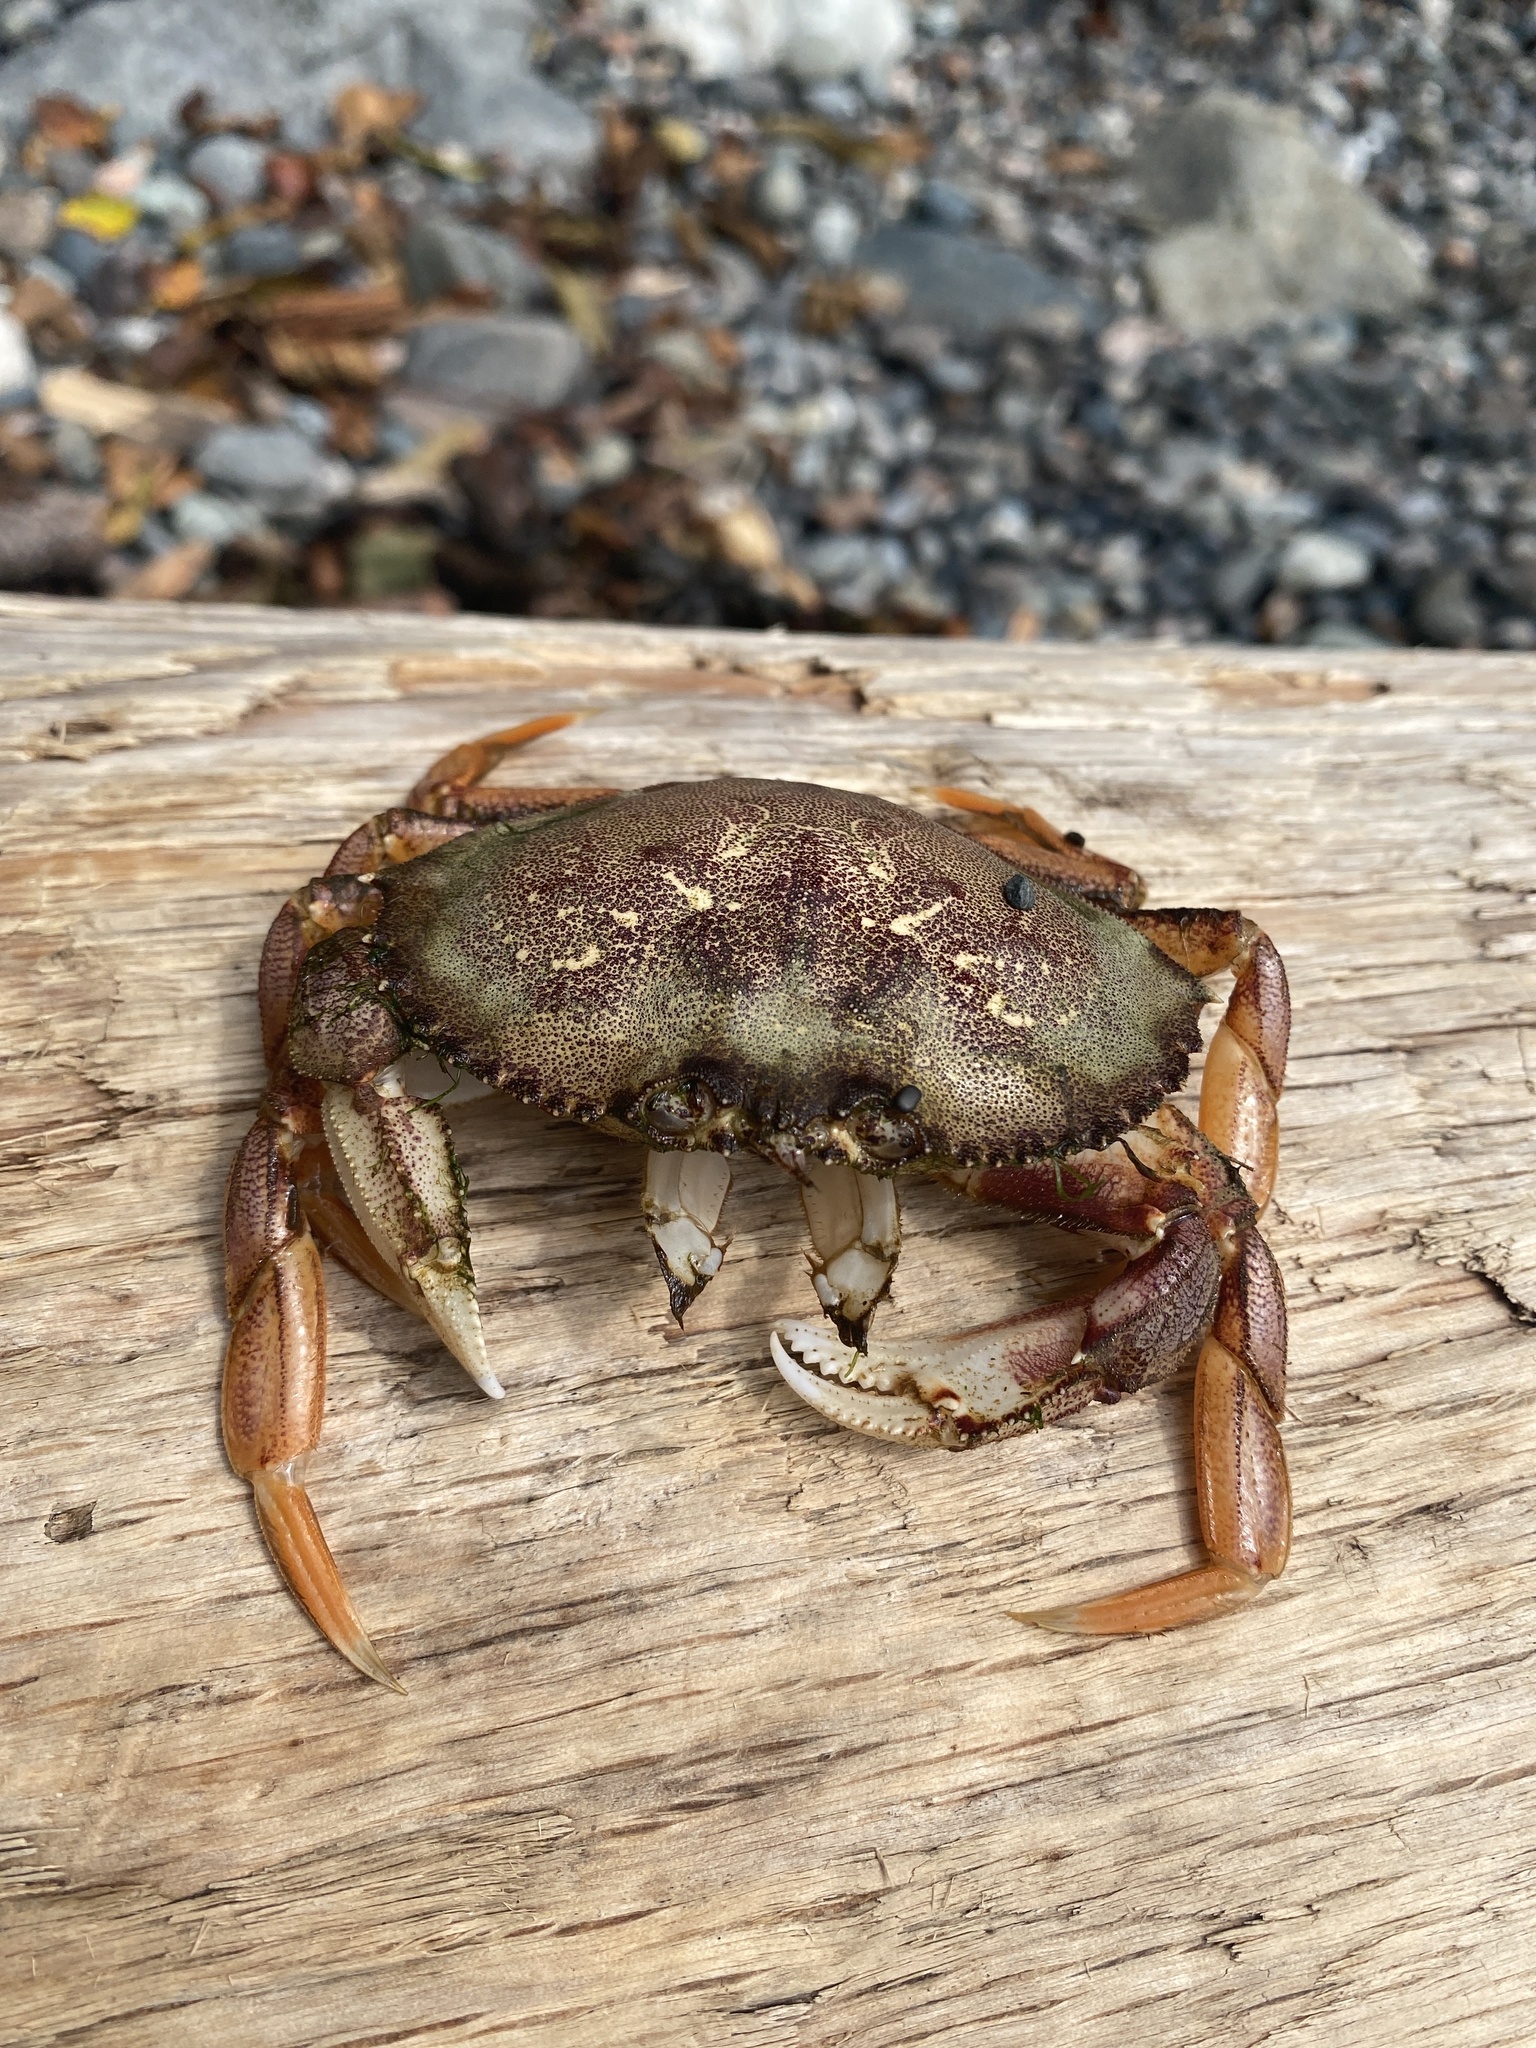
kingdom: Animalia
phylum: Arthropoda
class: Malacostraca
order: Decapoda
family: Cancridae
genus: Metacarcinus
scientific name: Metacarcinus magister
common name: Californian crab
